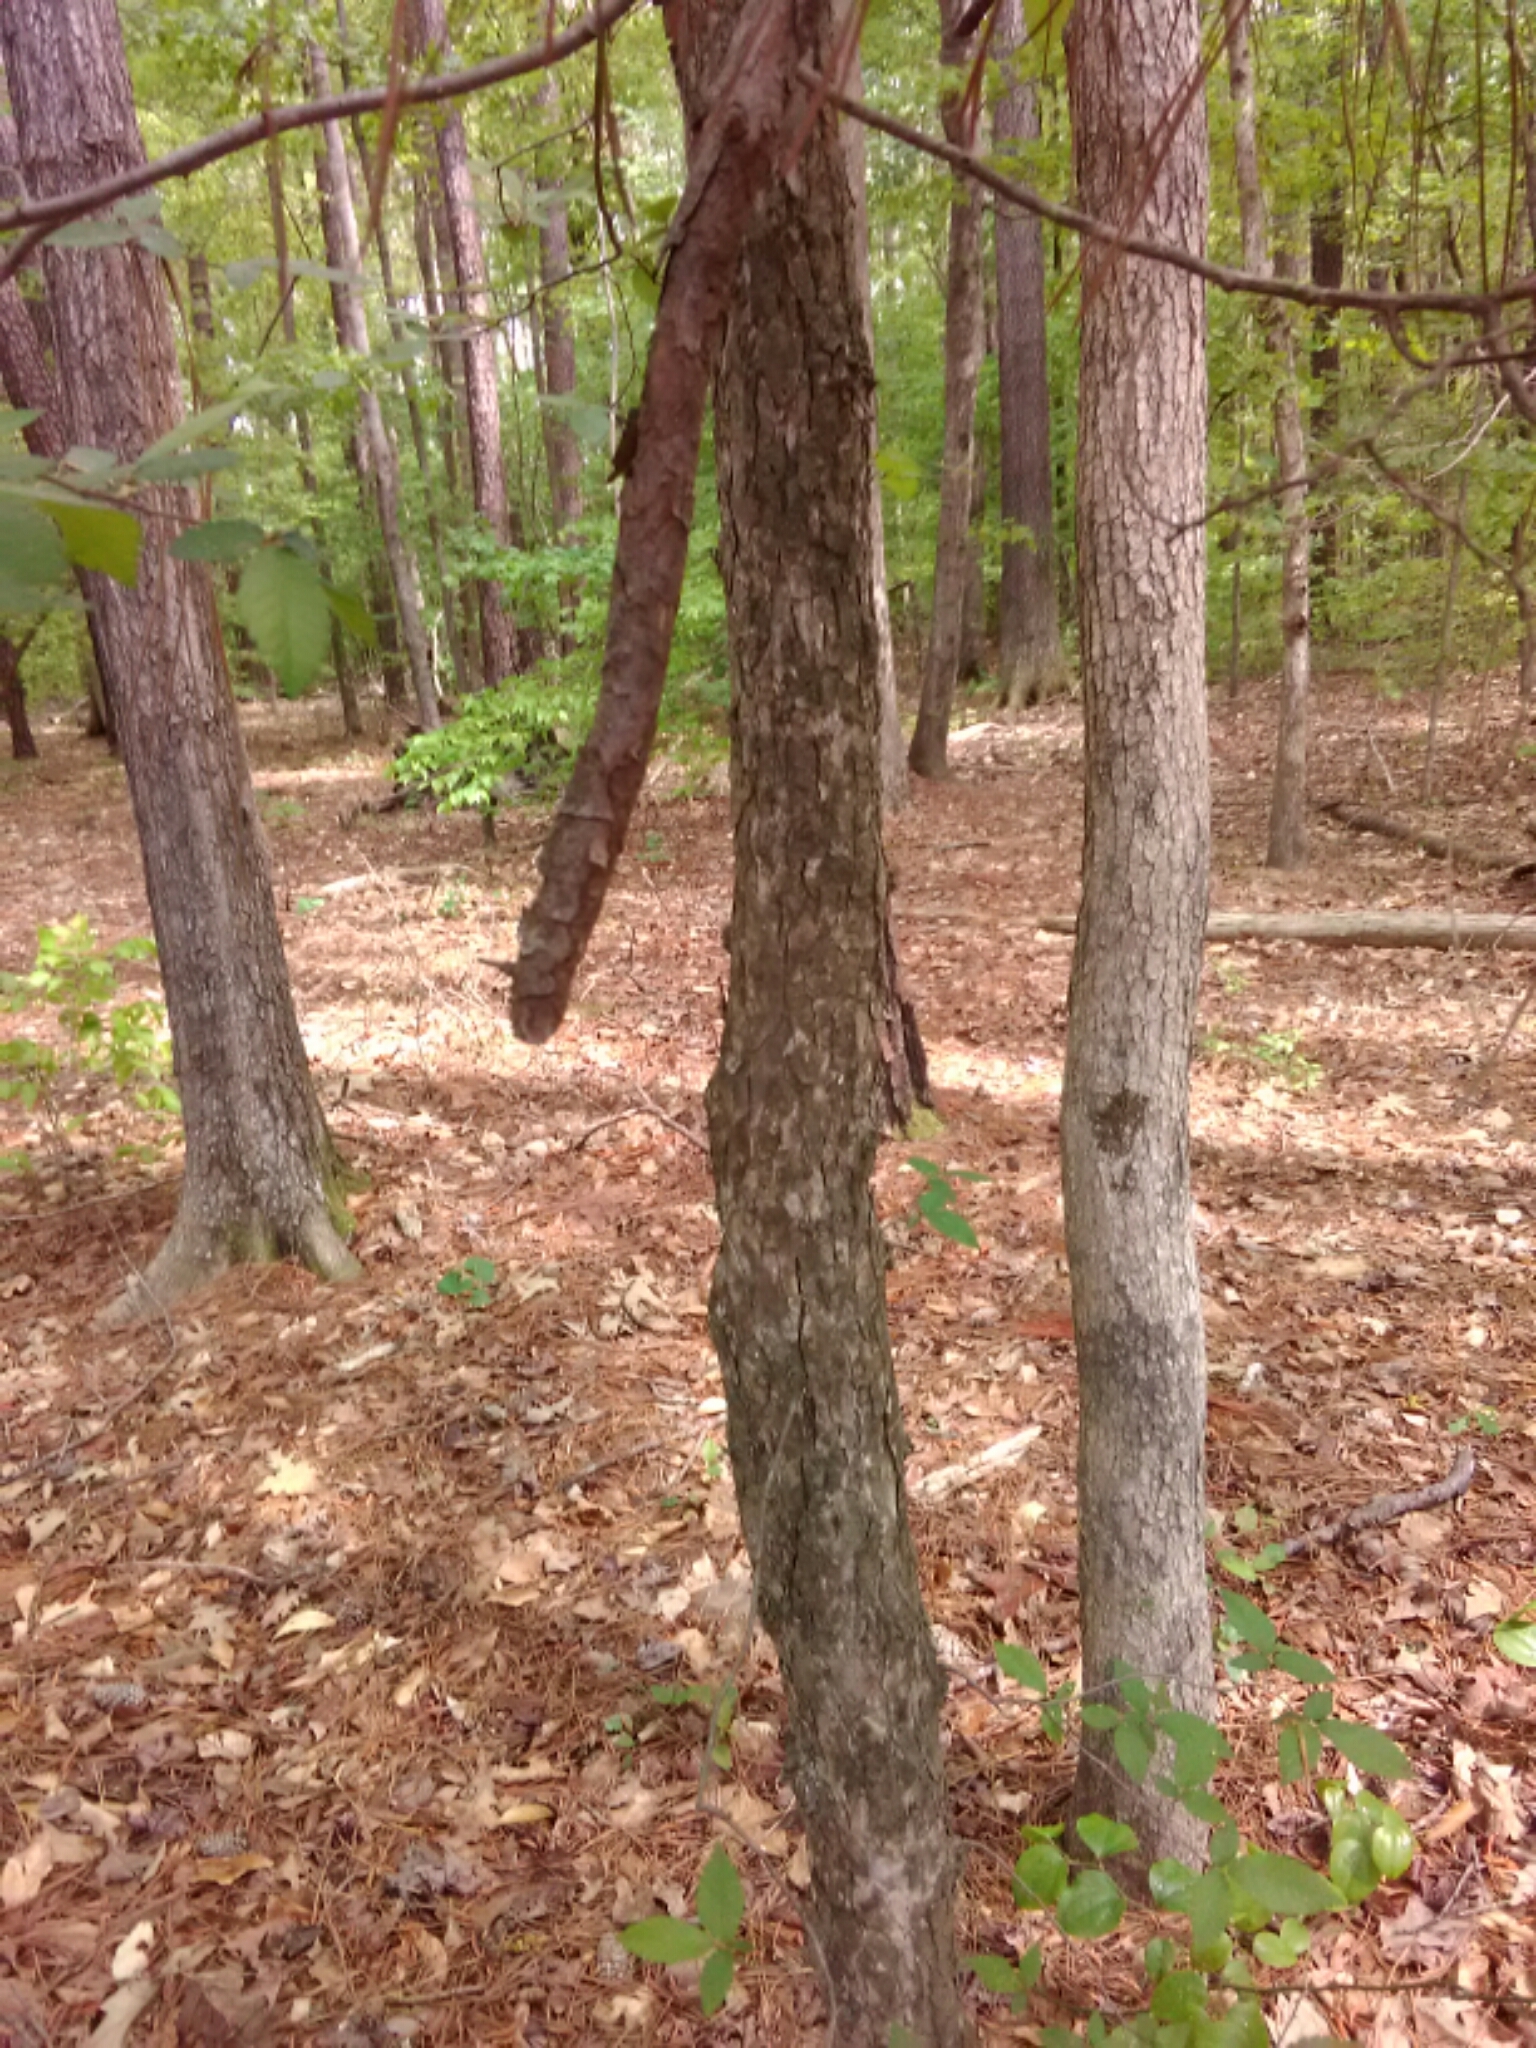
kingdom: Plantae
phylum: Tracheophyta
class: Magnoliopsida
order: Rosales
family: Ulmaceae
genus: Ulmus
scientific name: Ulmus alata
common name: Winged elm
